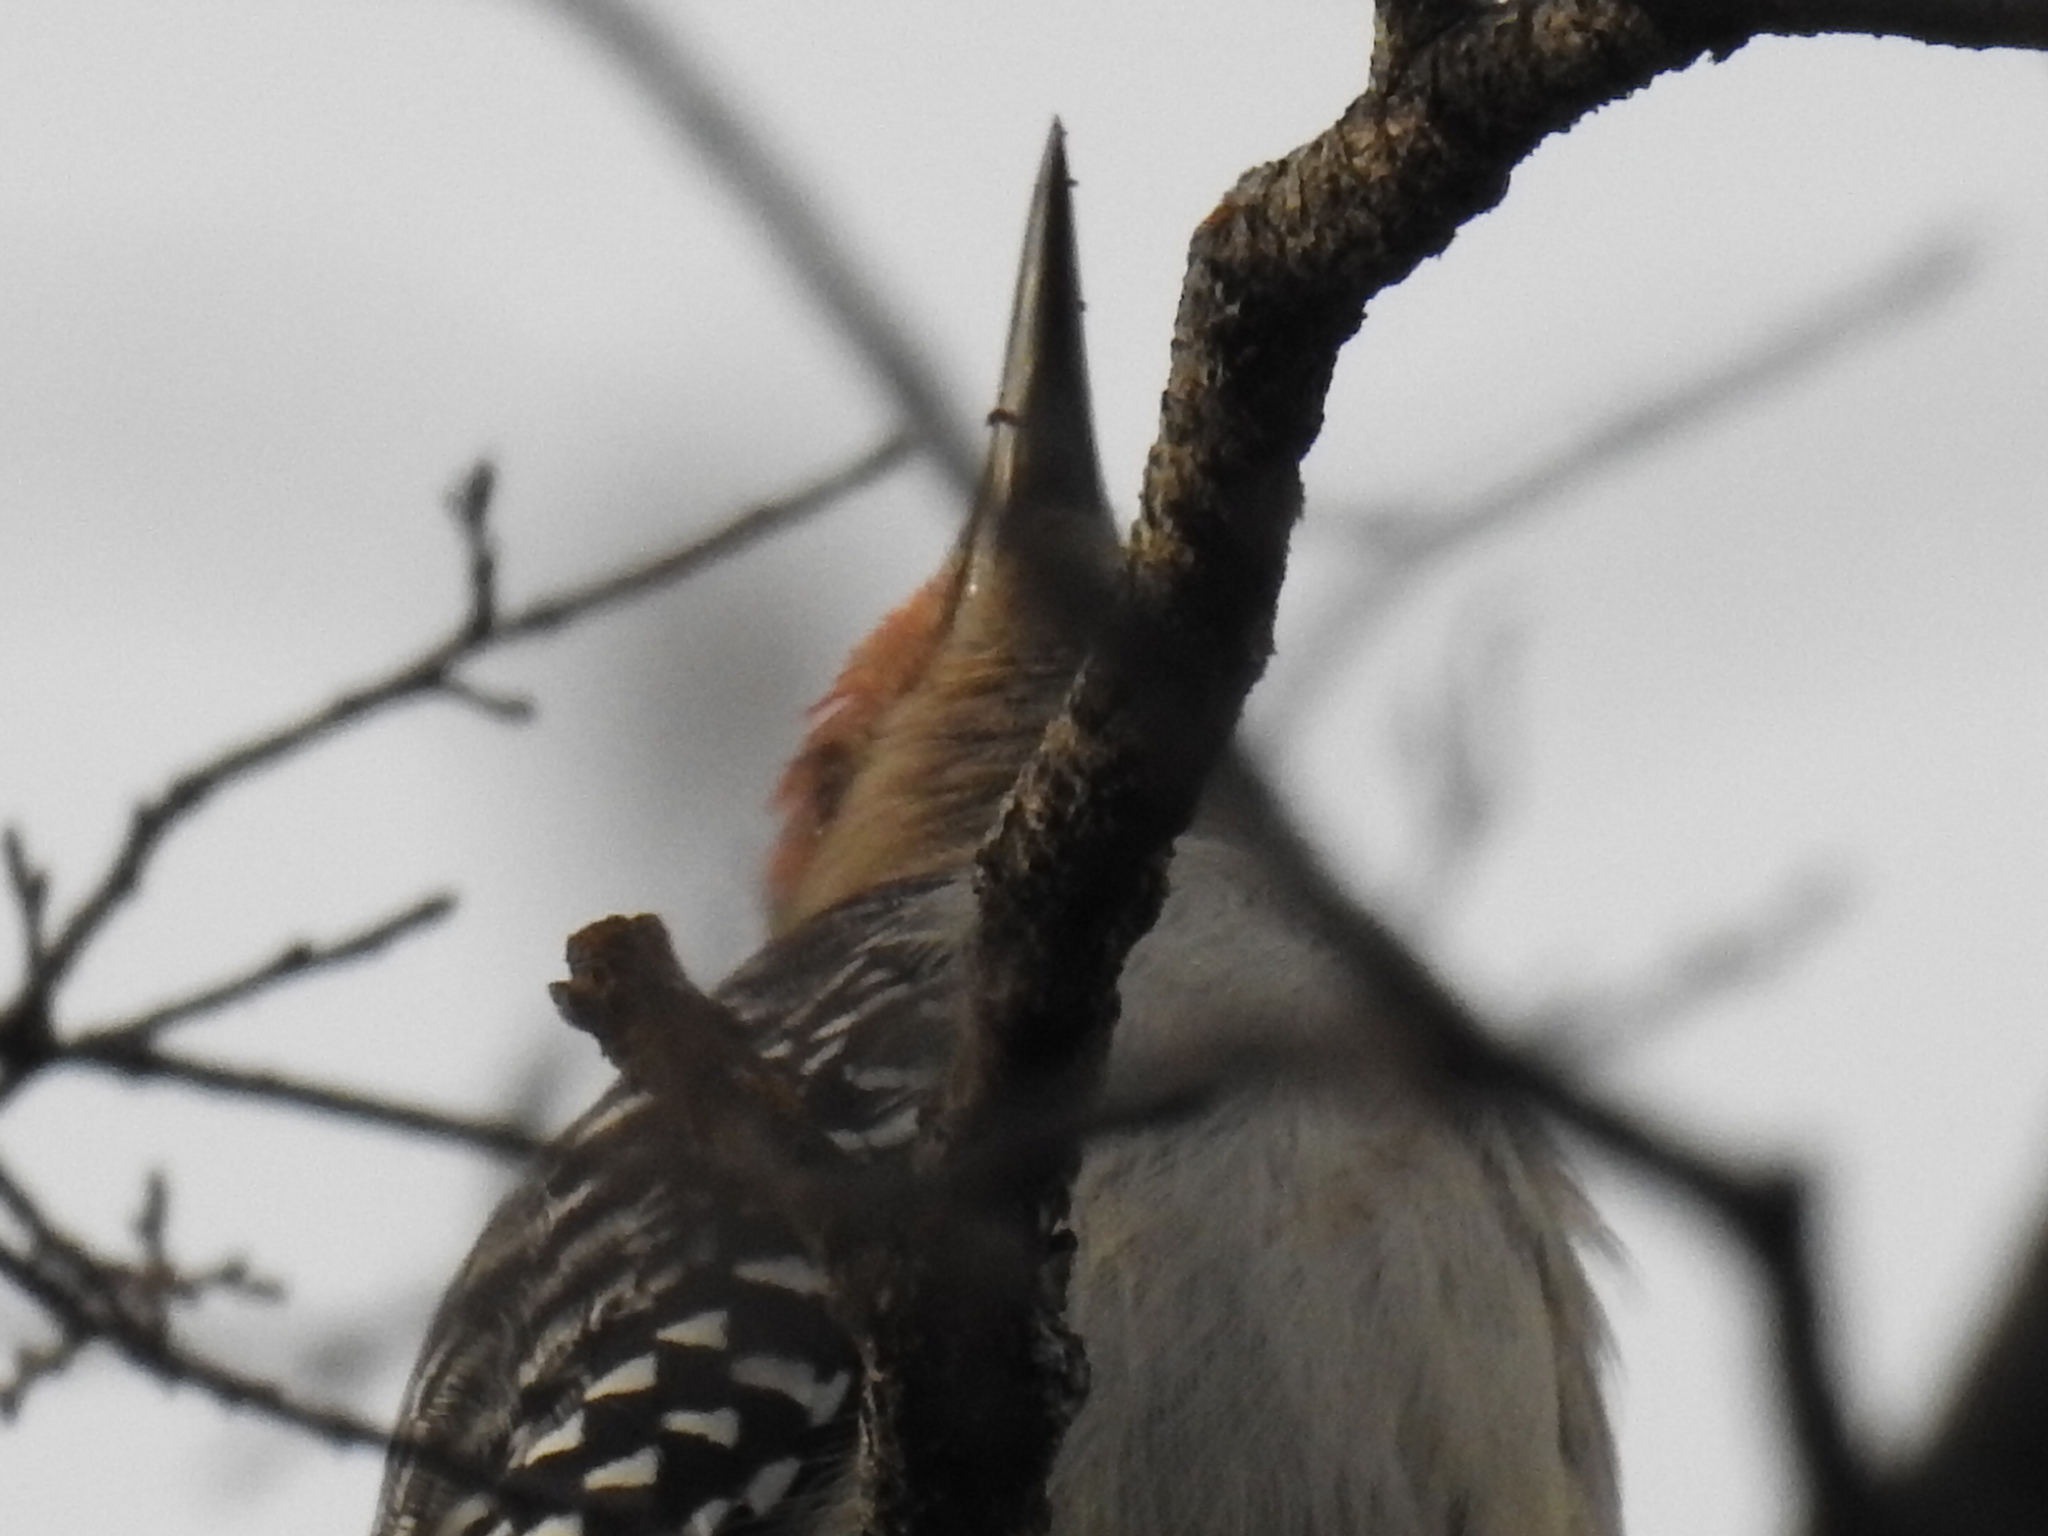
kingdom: Animalia
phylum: Chordata
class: Aves
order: Piciformes
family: Picidae
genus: Melanerpes
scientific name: Melanerpes carolinus
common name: Red-bellied woodpecker
